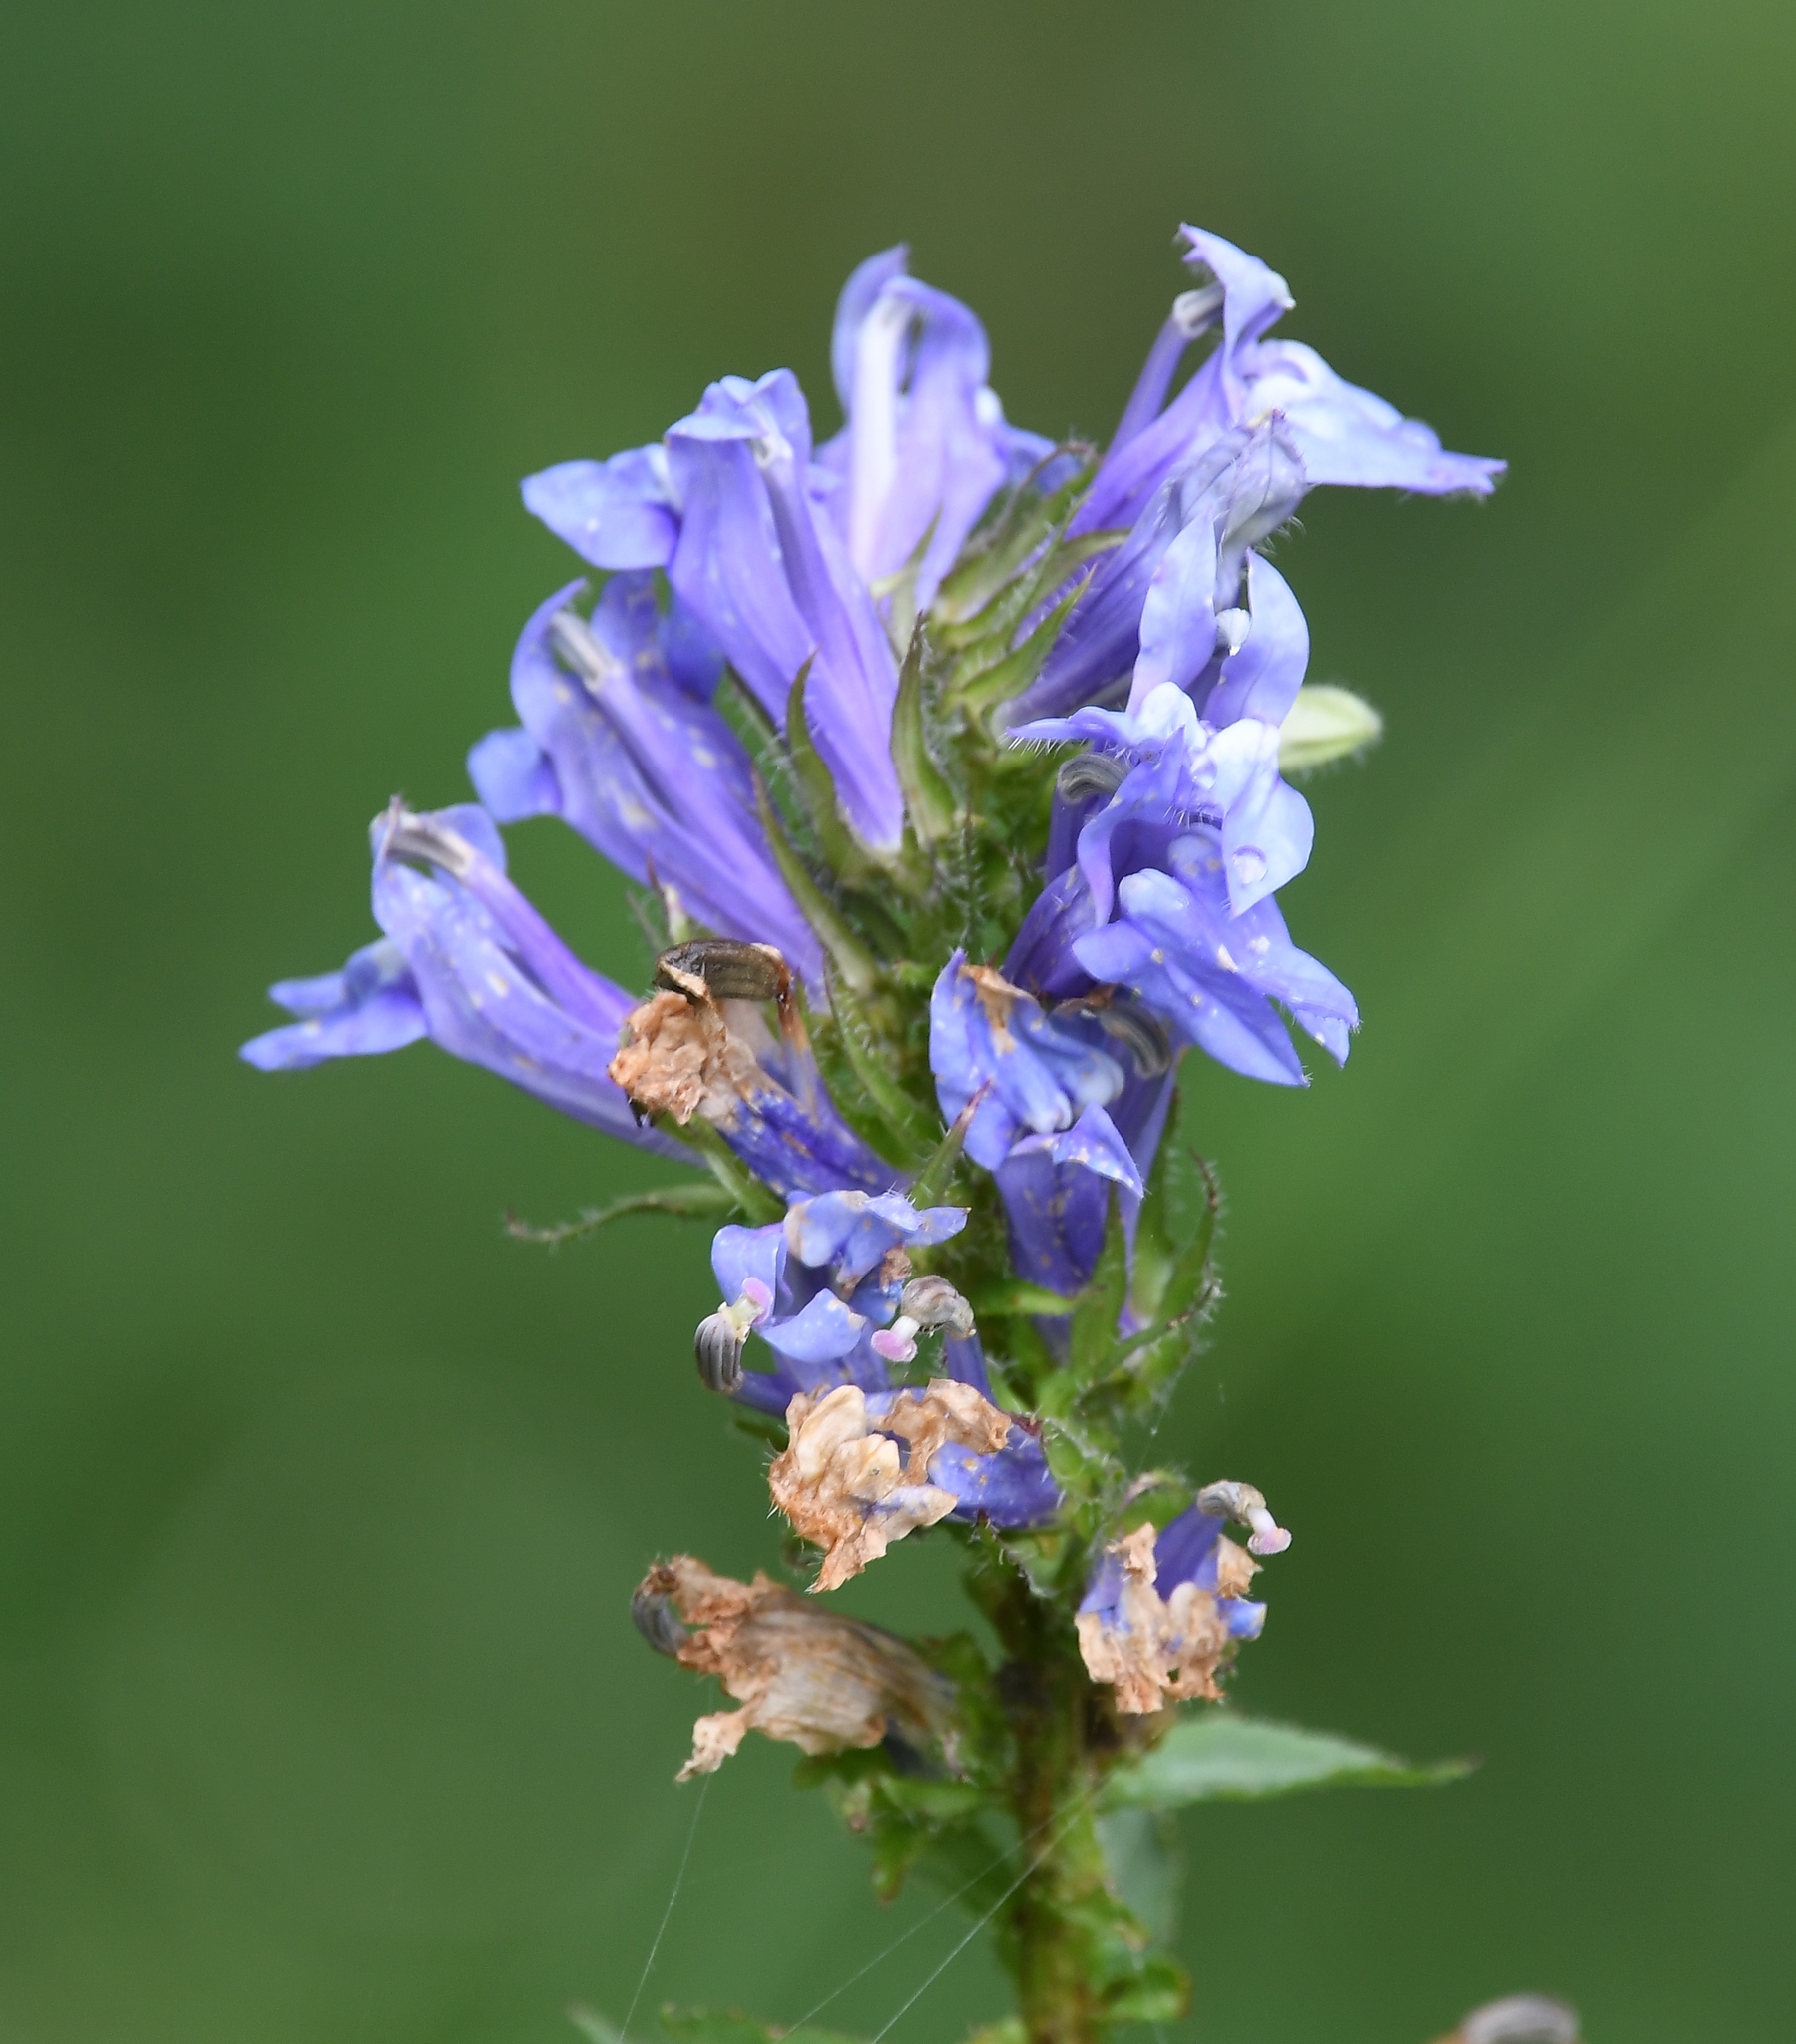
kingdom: Plantae
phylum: Tracheophyta
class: Magnoliopsida
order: Asterales
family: Campanulaceae
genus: Lobelia
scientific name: Lobelia siphilitica
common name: Great lobelia
